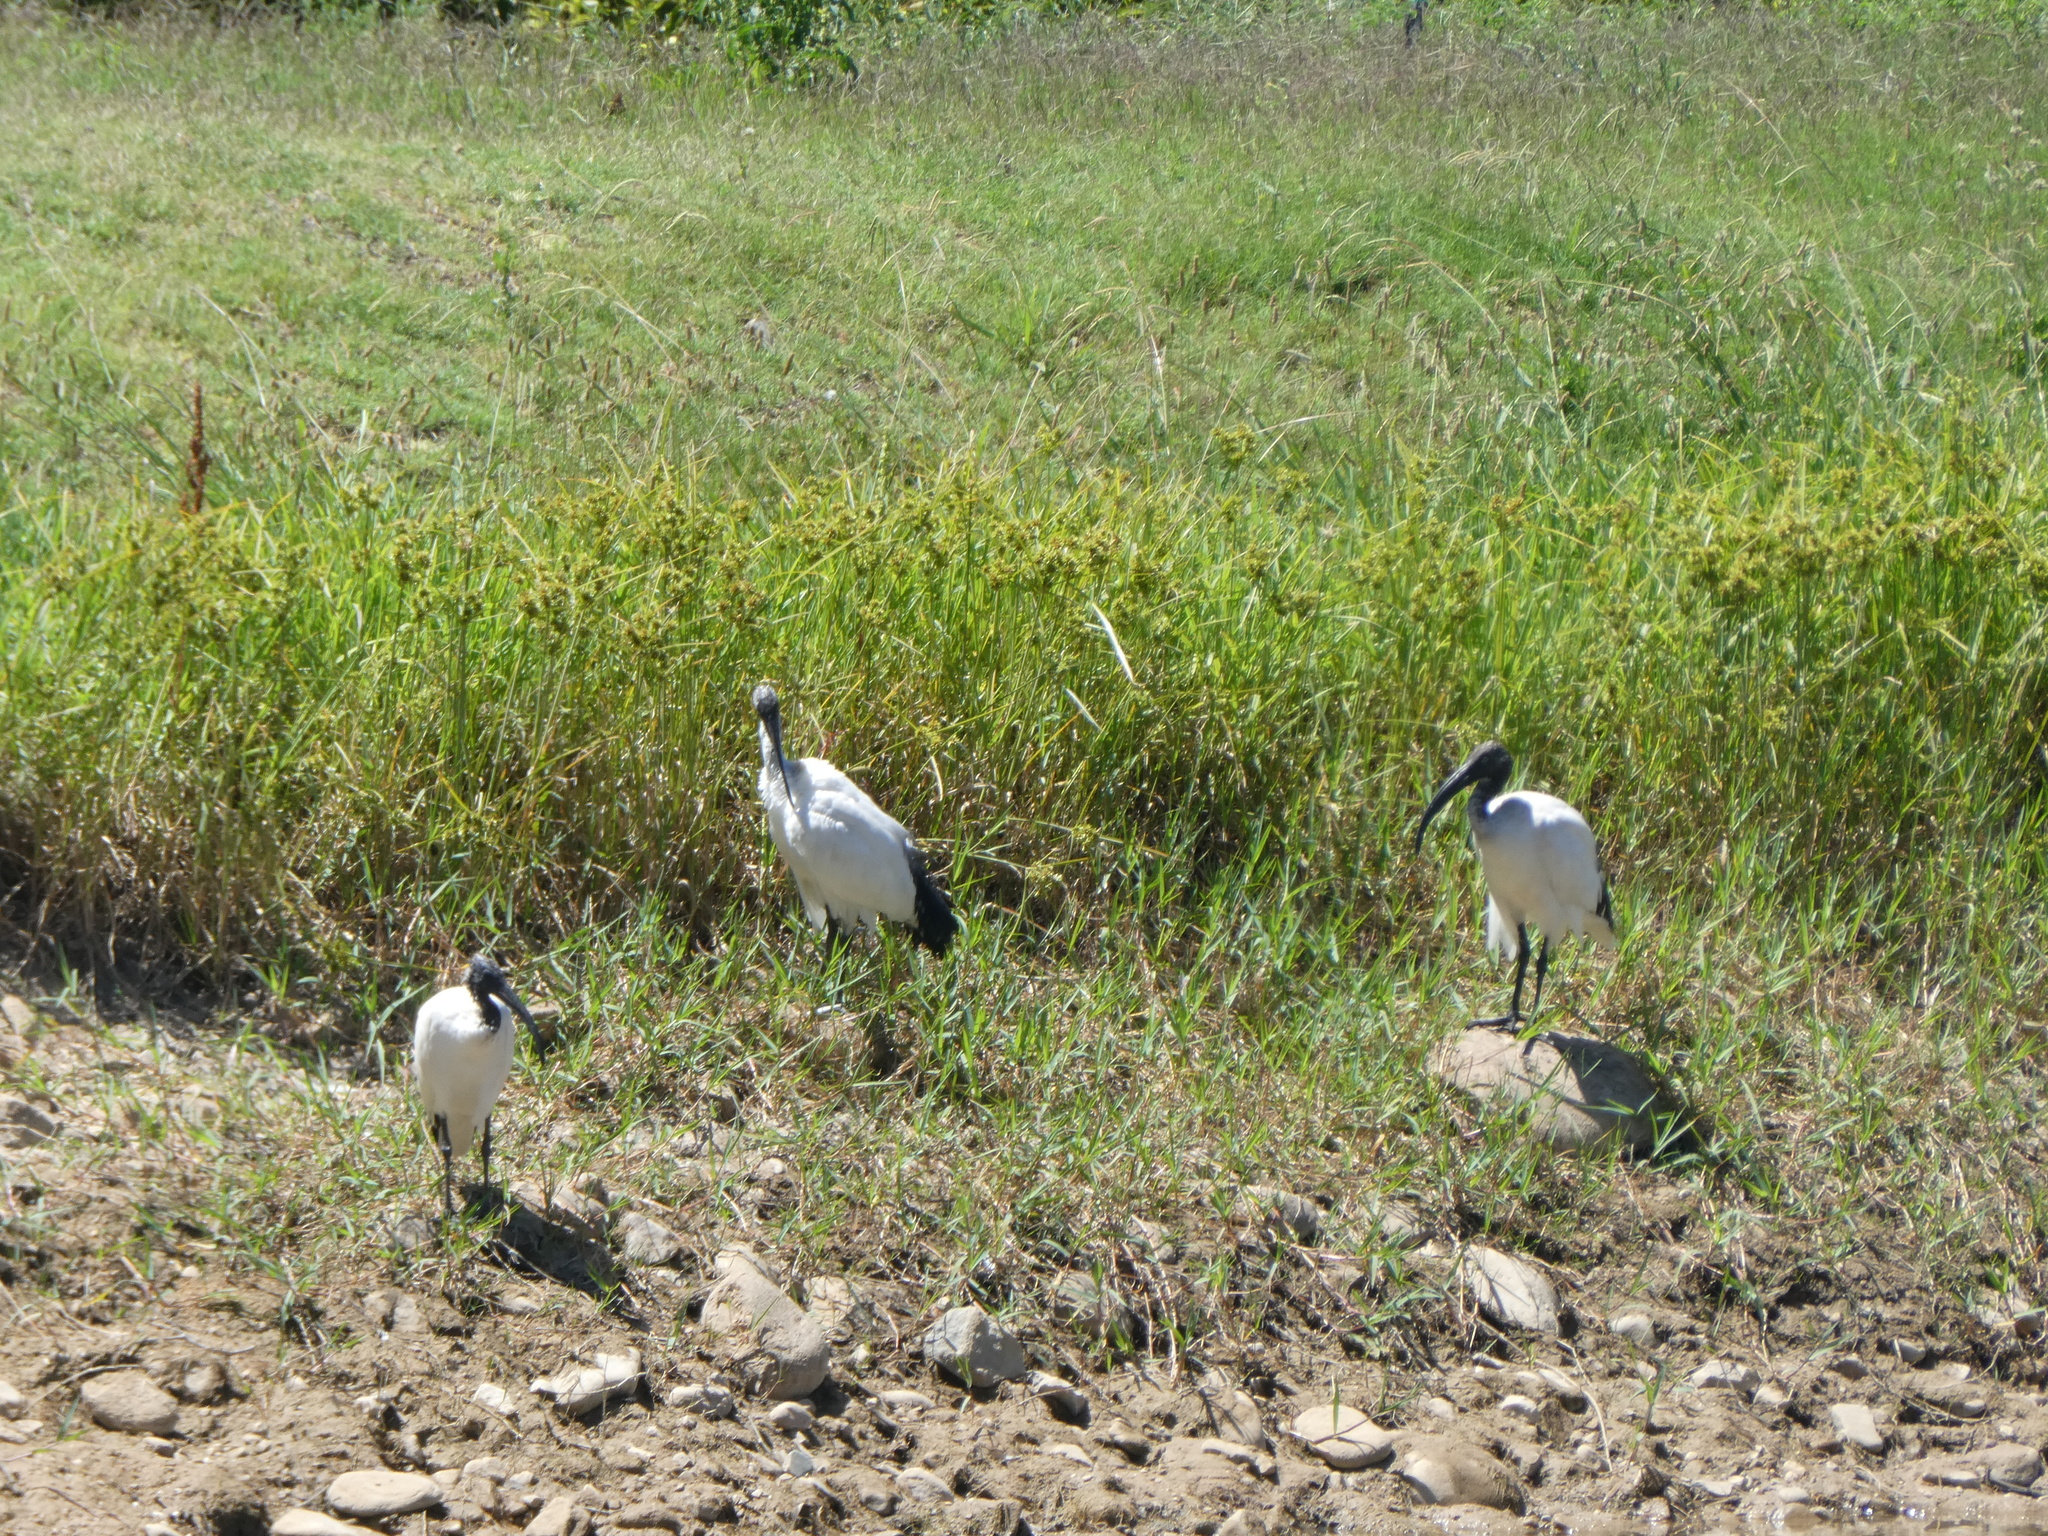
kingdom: Animalia
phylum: Chordata
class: Aves
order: Pelecaniformes
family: Threskiornithidae
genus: Threskiornis
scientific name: Threskiornis aethiopicus
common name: Sacred ibis
